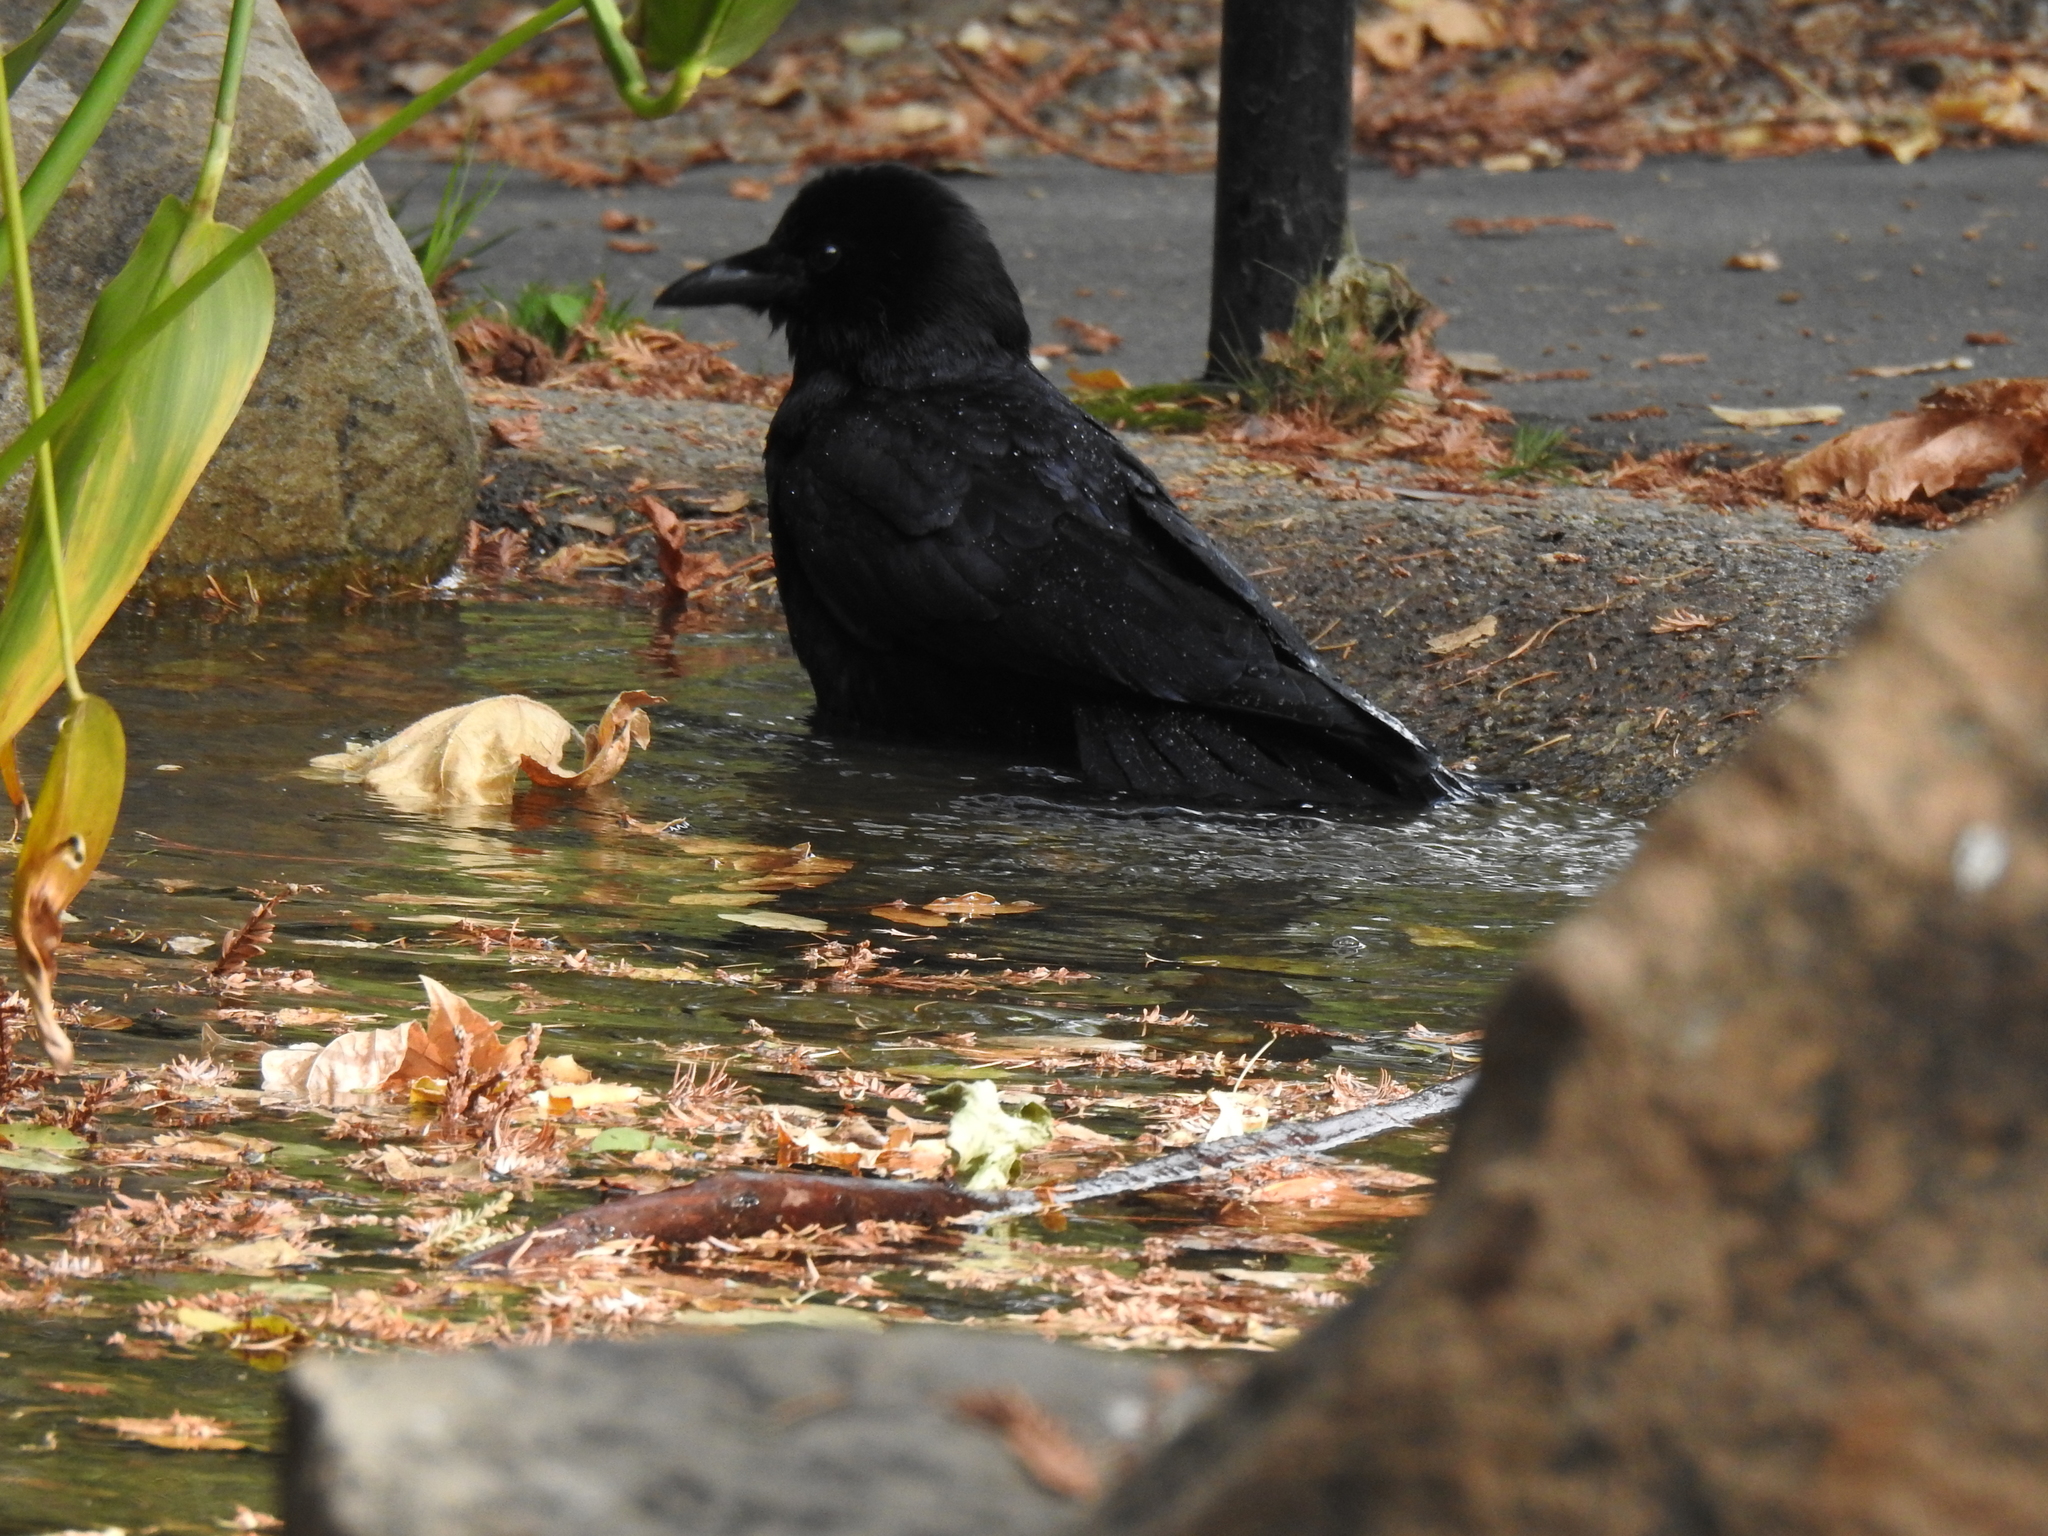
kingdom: Animalia
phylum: Chordata
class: Aves
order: Passeriformes
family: Corvidae
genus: Corvus
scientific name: Corvus brachyrhynchos
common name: American crow
